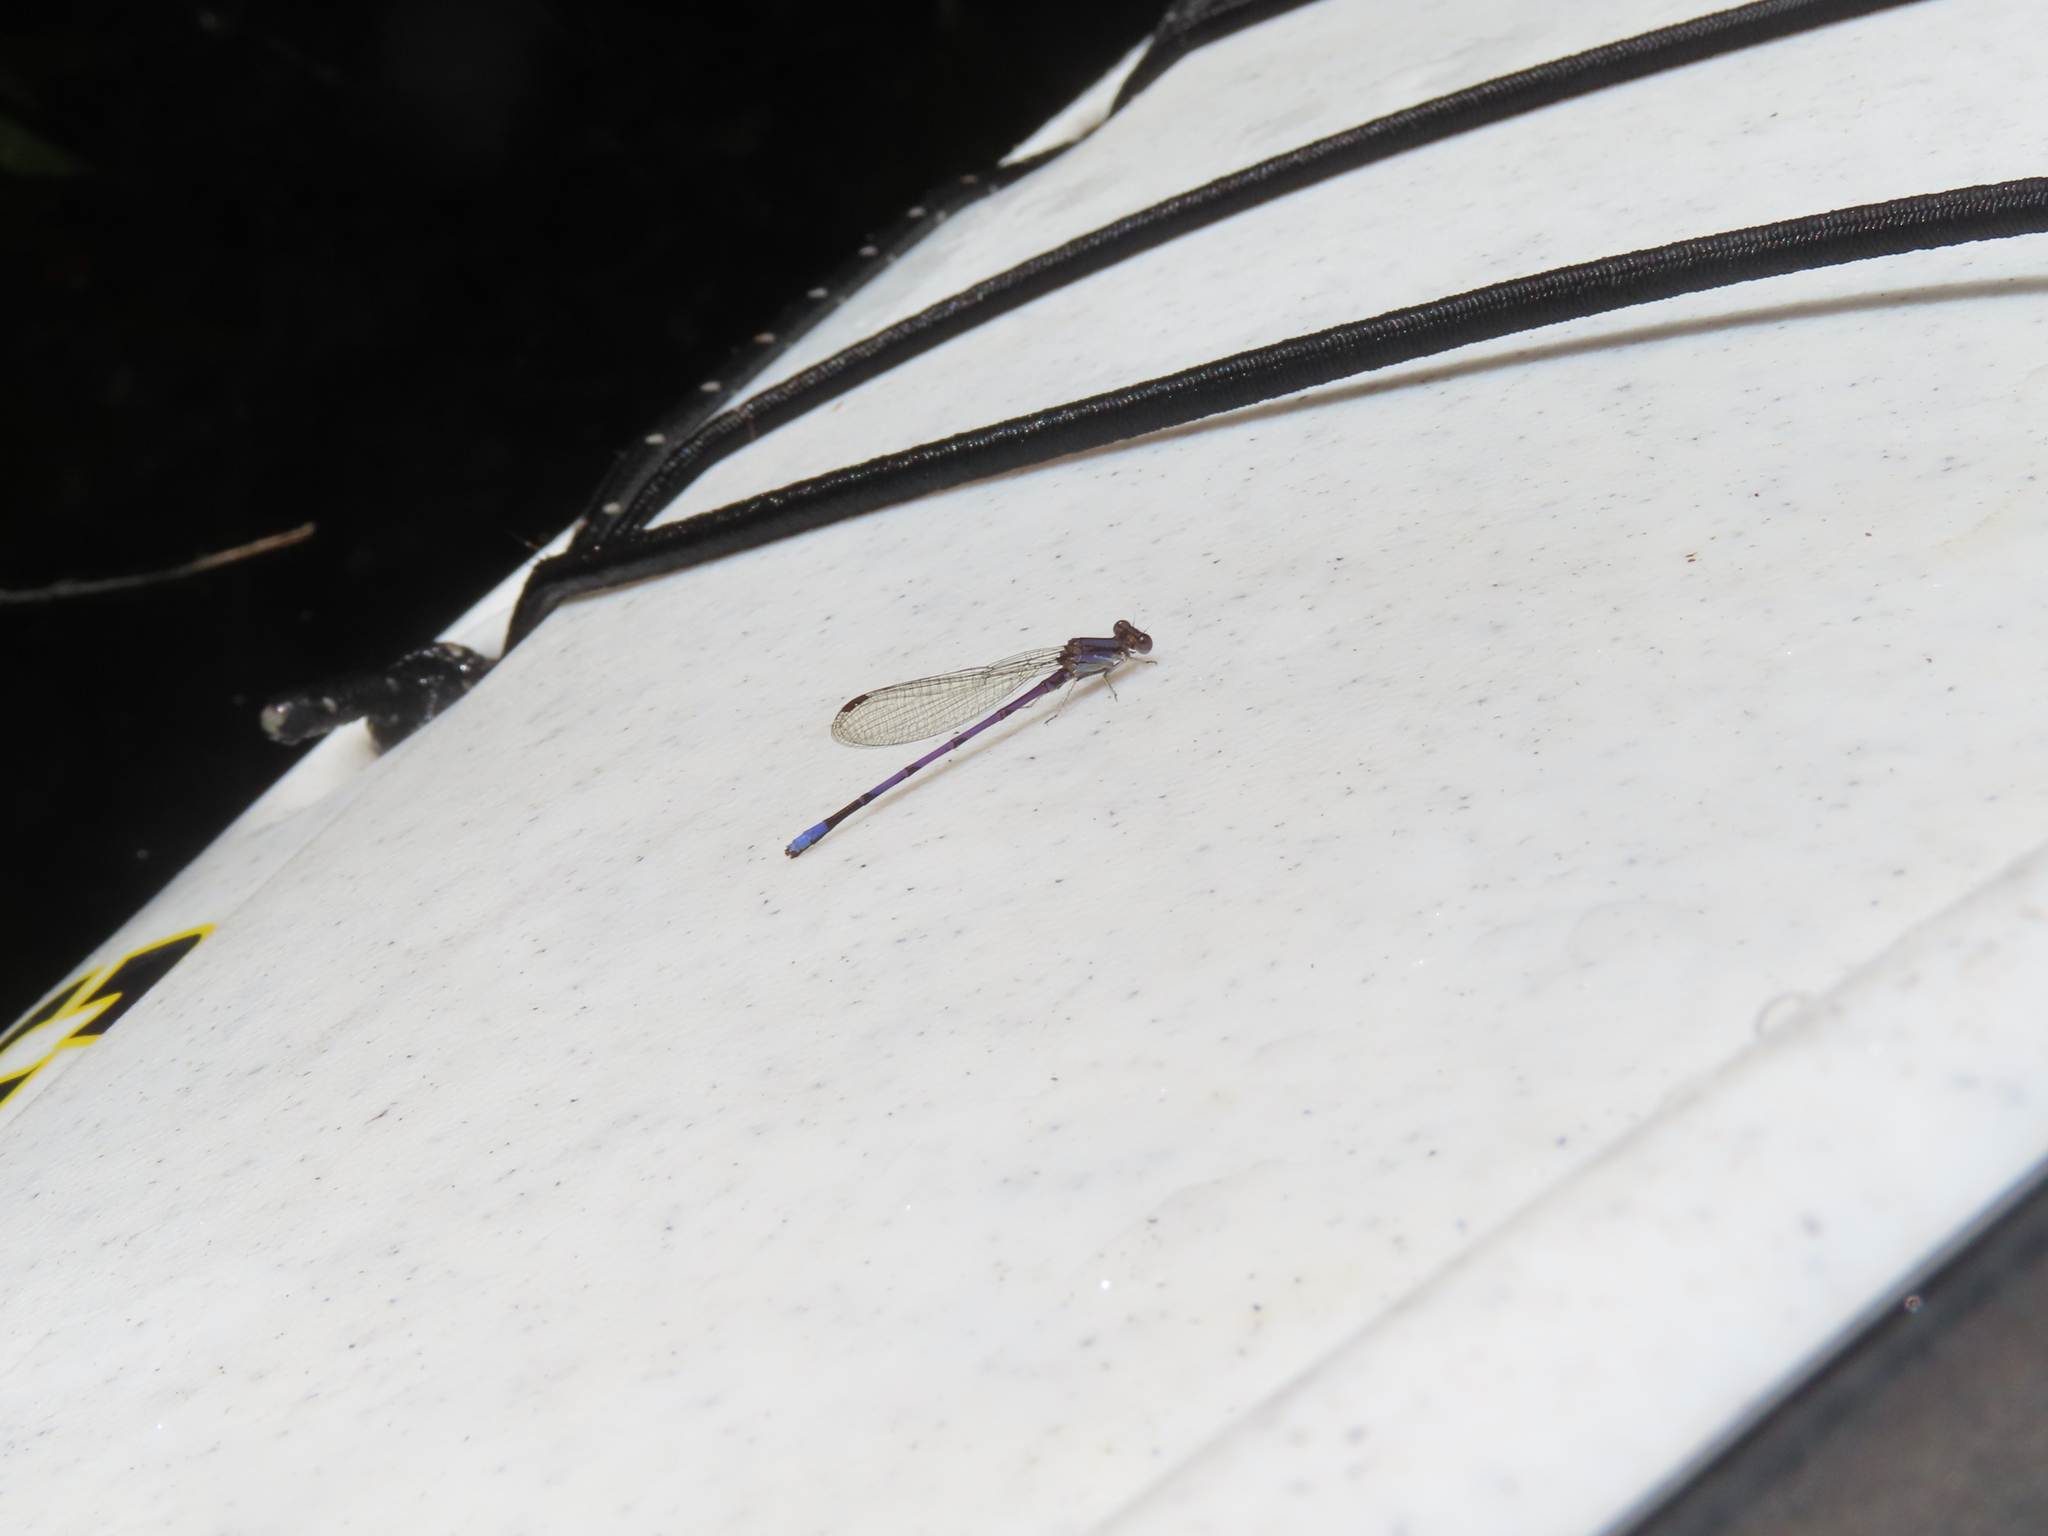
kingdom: Animalia
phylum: Arthropoda
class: Insecta
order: Odonata
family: Coenagrionidae
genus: Argia
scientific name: Argia fumipennis
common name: Variable dancer
